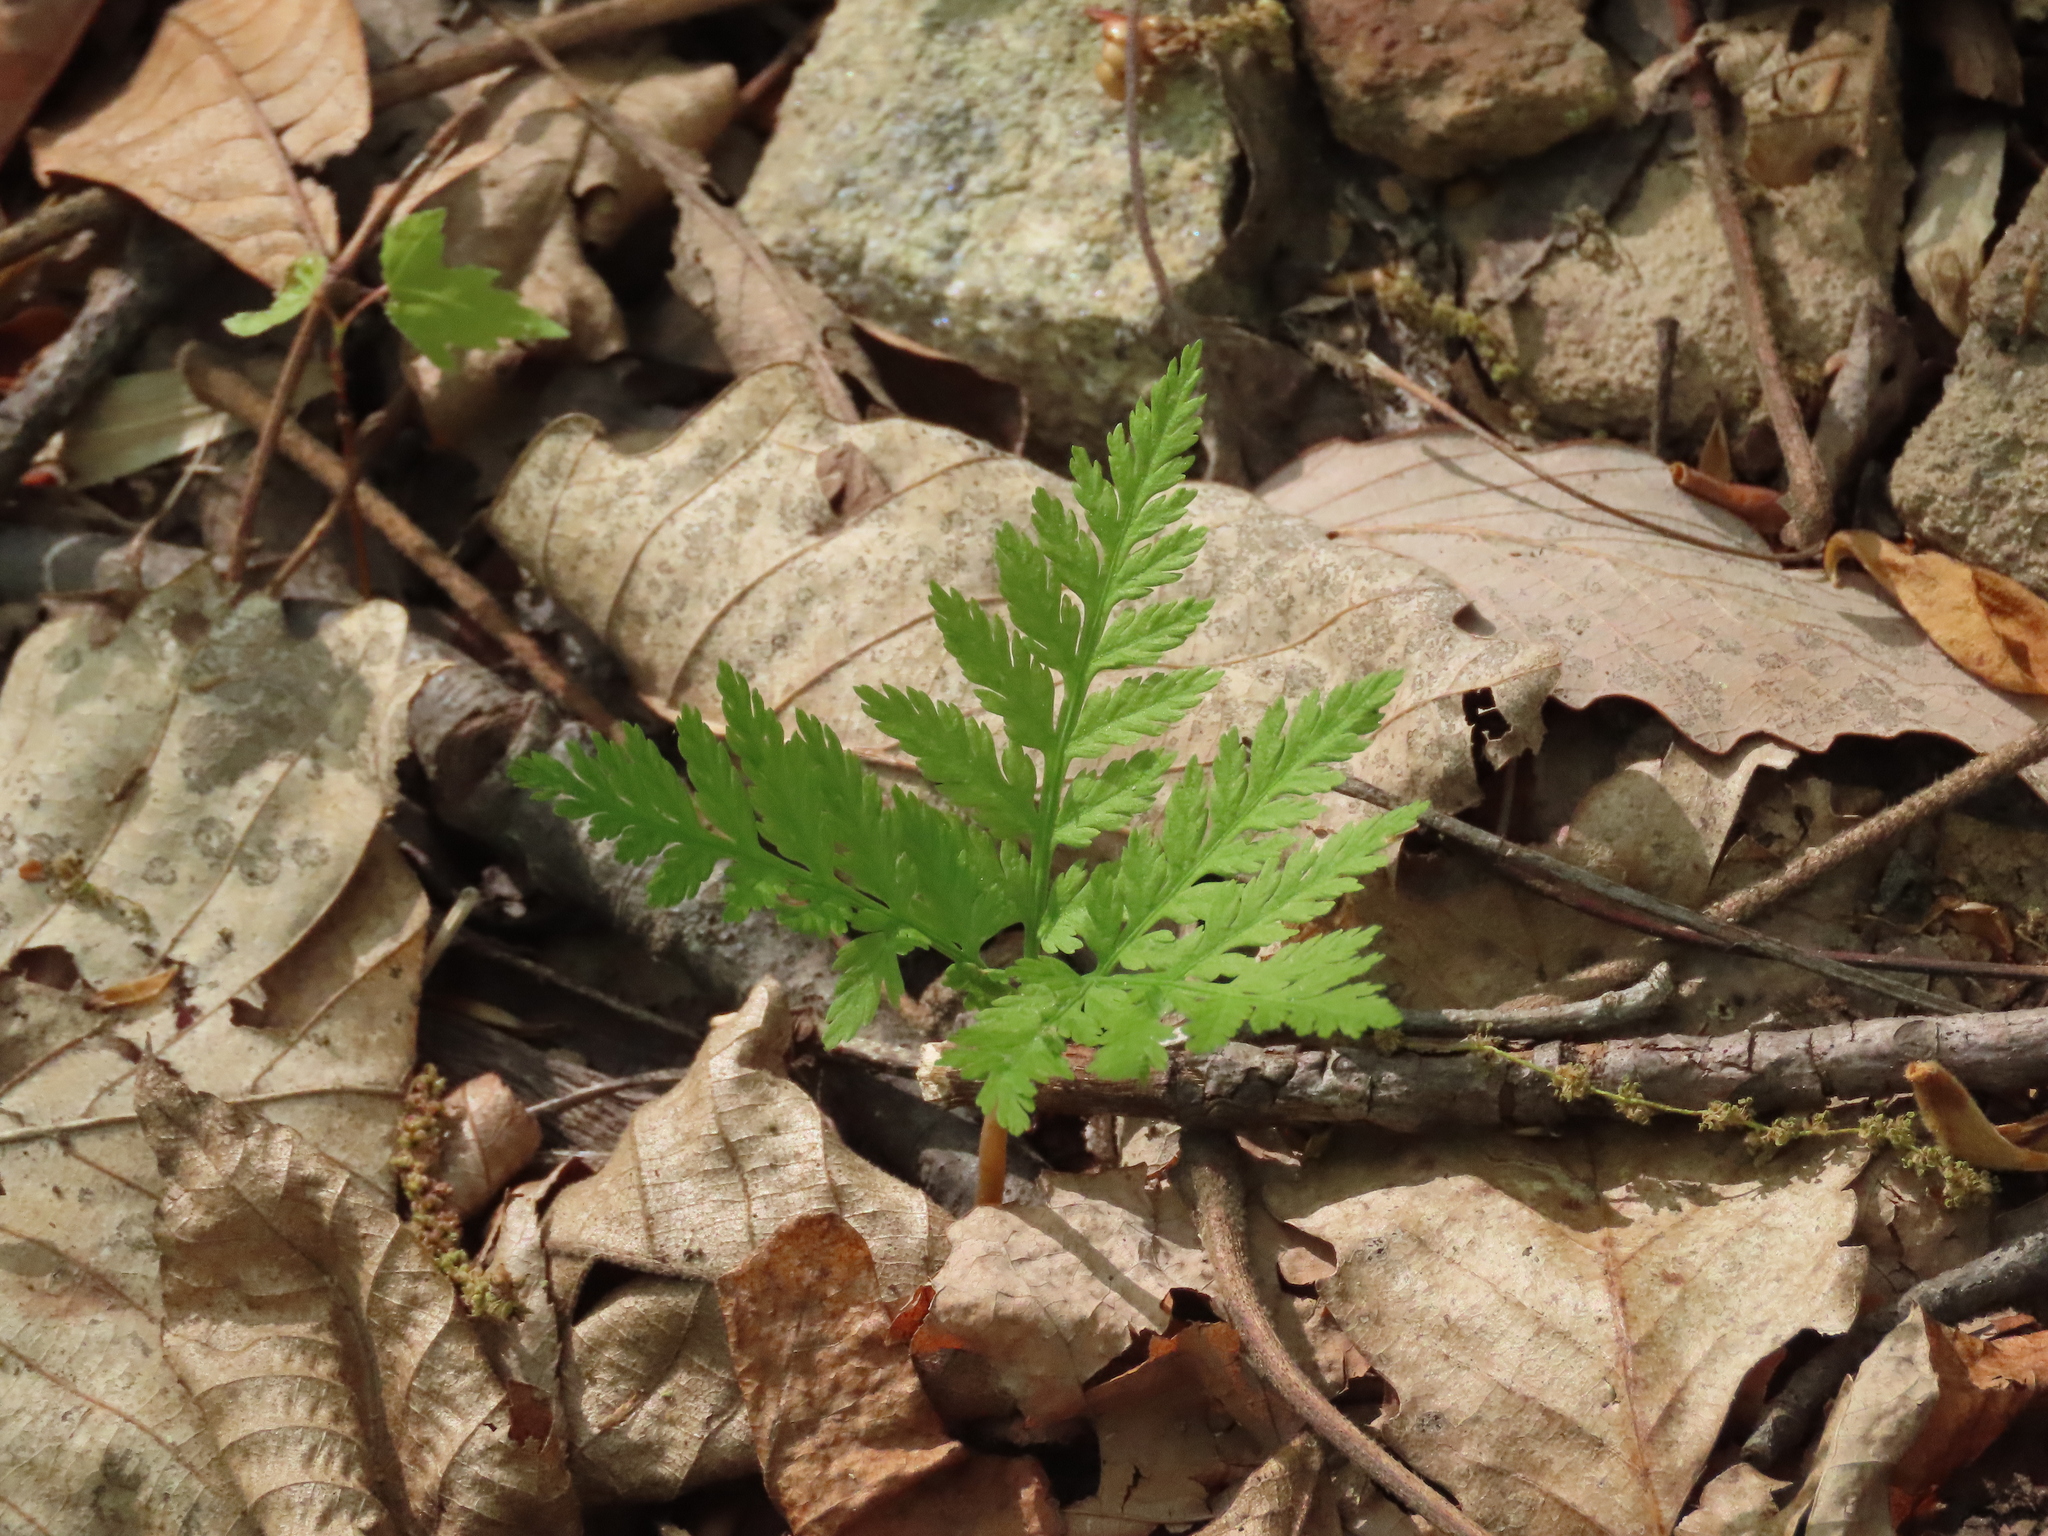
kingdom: Plantae
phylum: Tracheophyta
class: Polypodiopsida
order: Ophioglossales
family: Ophioglossaceae
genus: Botrypus
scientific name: Botrypus virginianus
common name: Common grapefern
